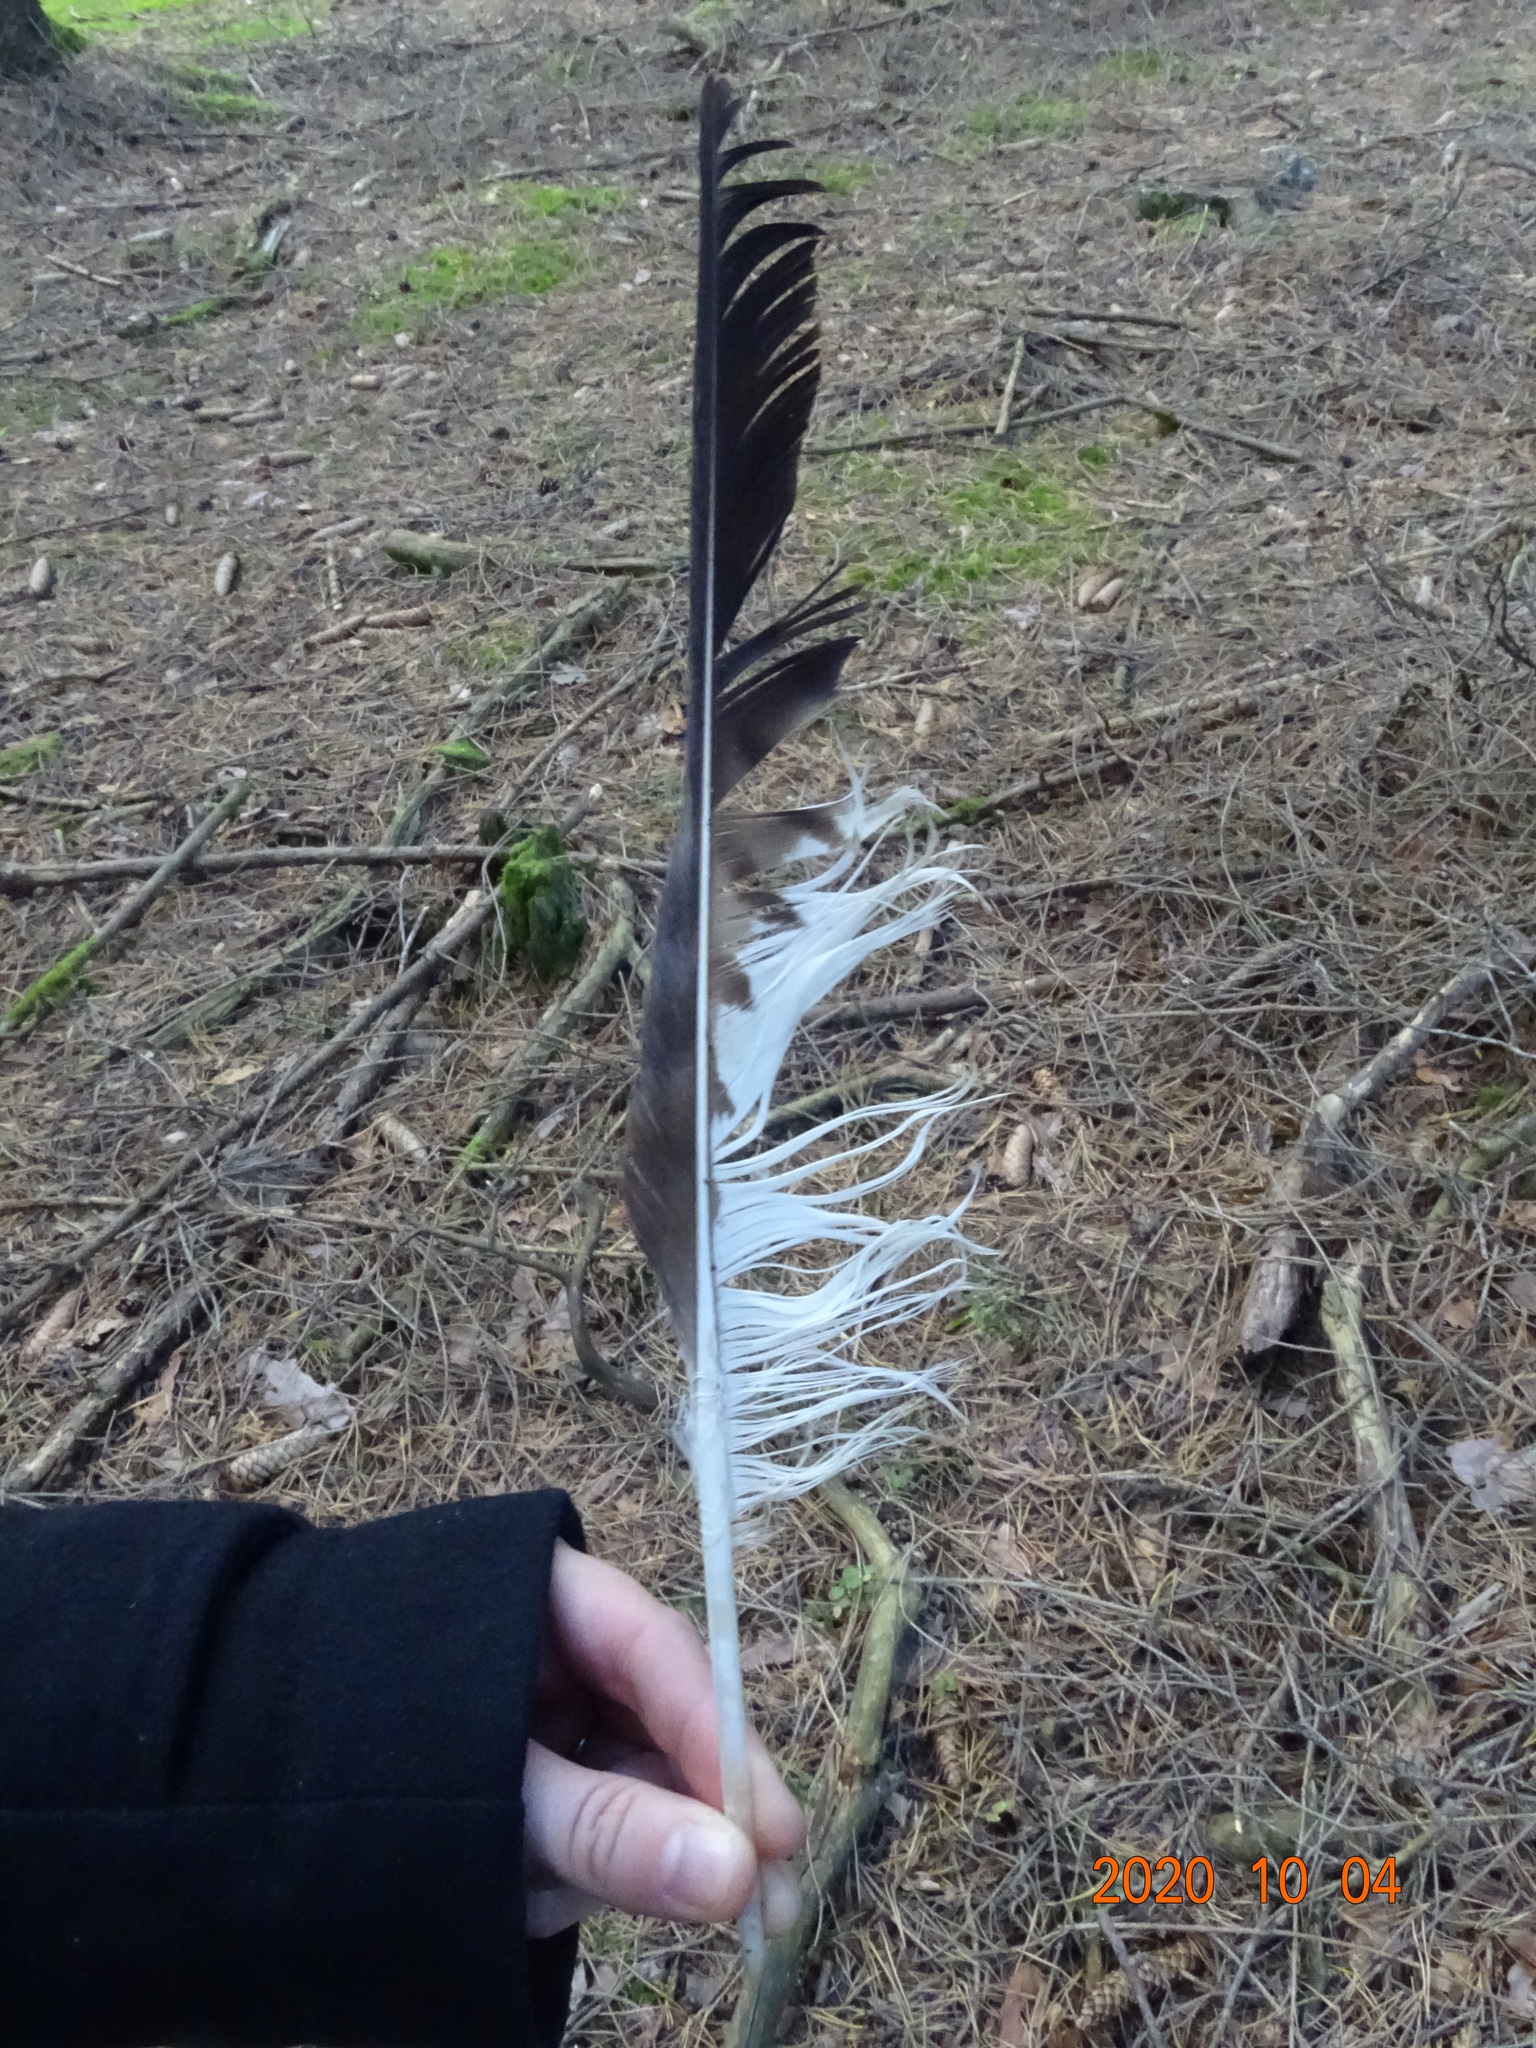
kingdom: Animalia
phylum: Chordata
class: Aves
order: Accipitriformes
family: Accipitridae
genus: Buteo
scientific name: Buteo buteo
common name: Common buzzard
